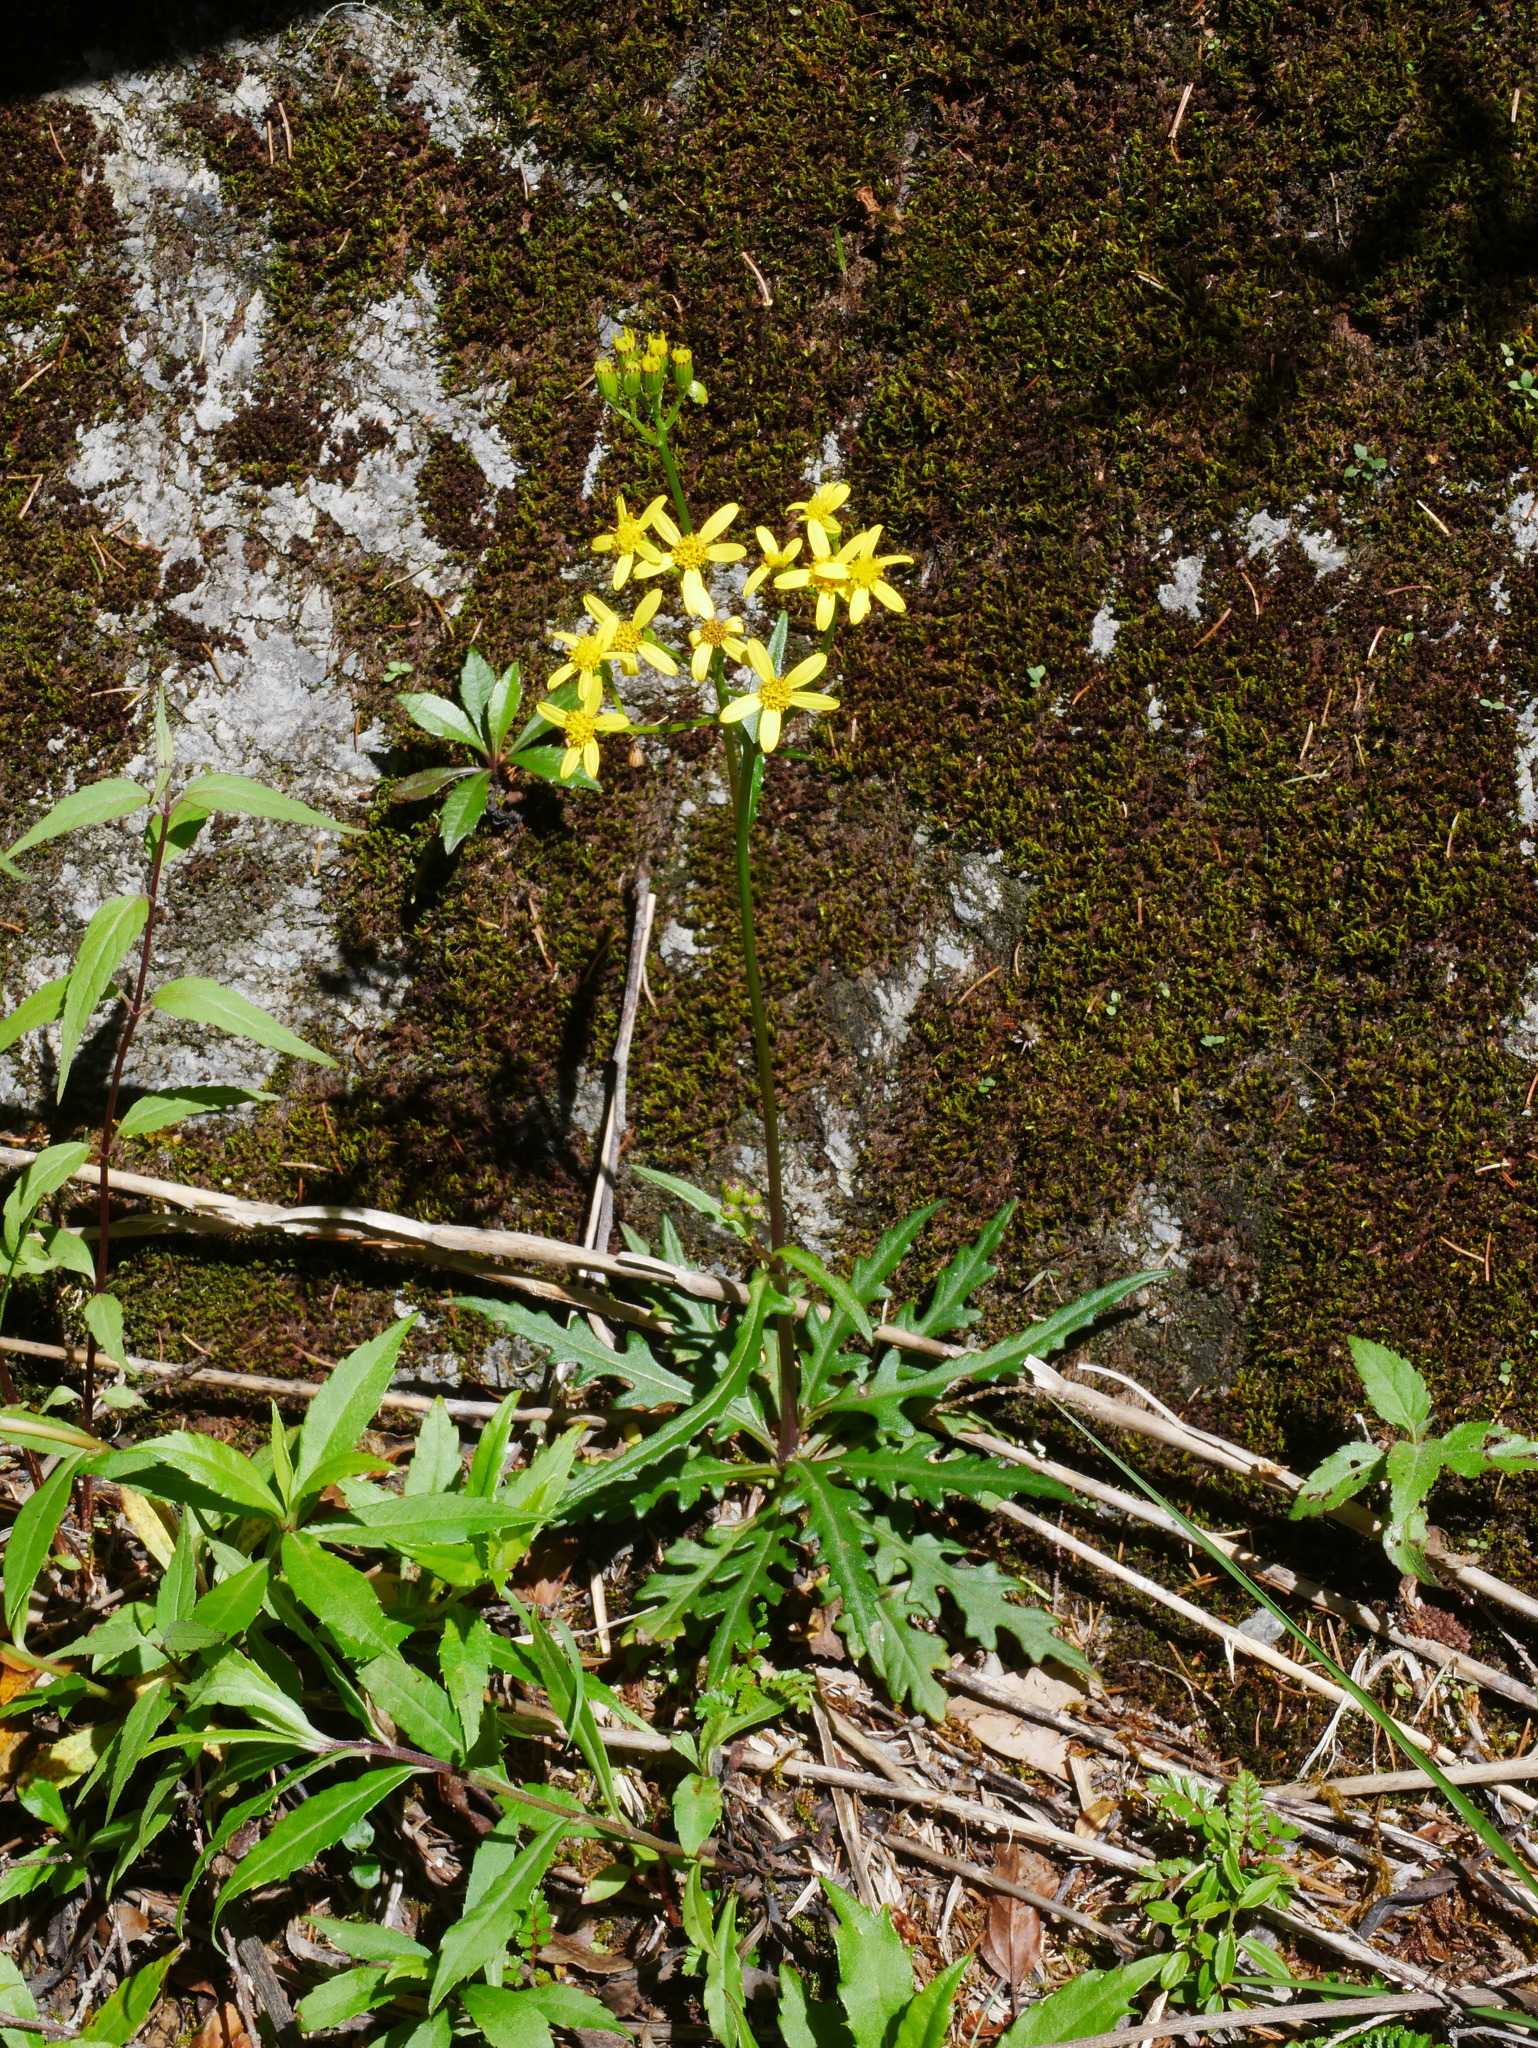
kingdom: Plantae
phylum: Tracheophyta
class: Magnoliopsida
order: Asterales
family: Asteraceae
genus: Jacobaea
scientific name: Jacobaea morrisonensis
